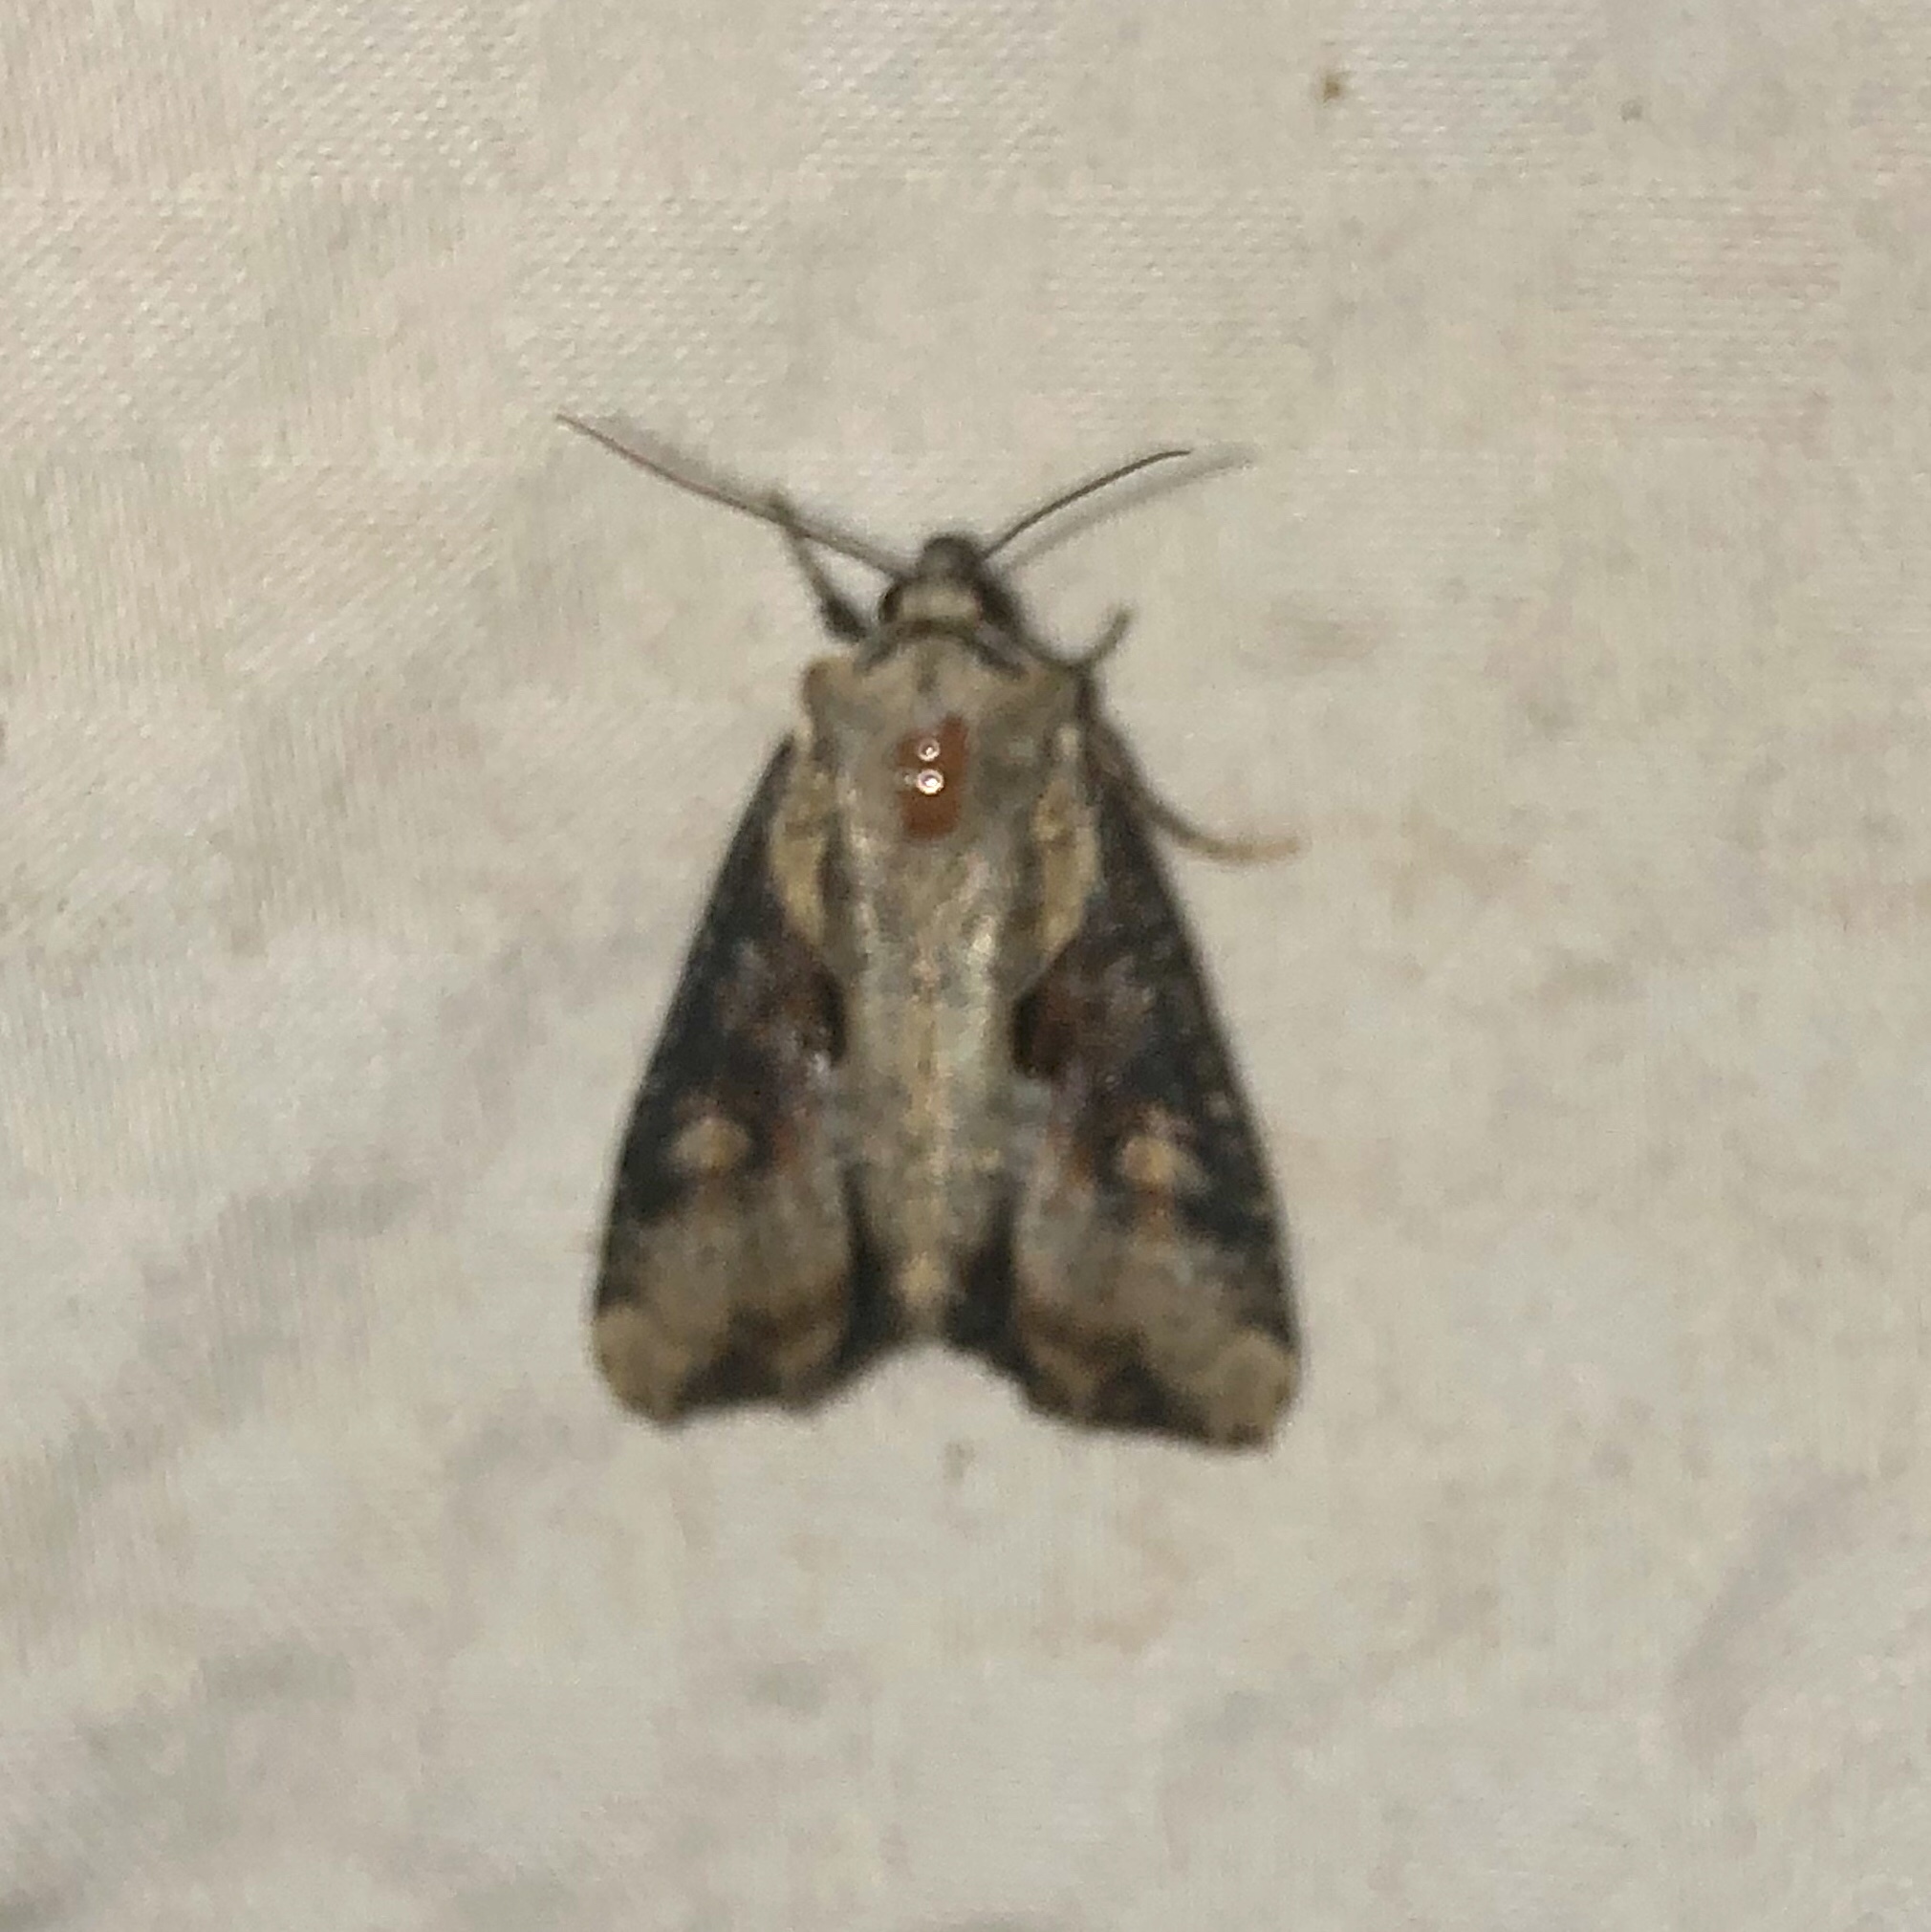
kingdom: Animalia
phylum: Arthropoda
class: Insecta
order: Lepidoptera
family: Noctuidae
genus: Lateroligia
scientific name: Lateroligia ophiogramma
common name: Double lobed
